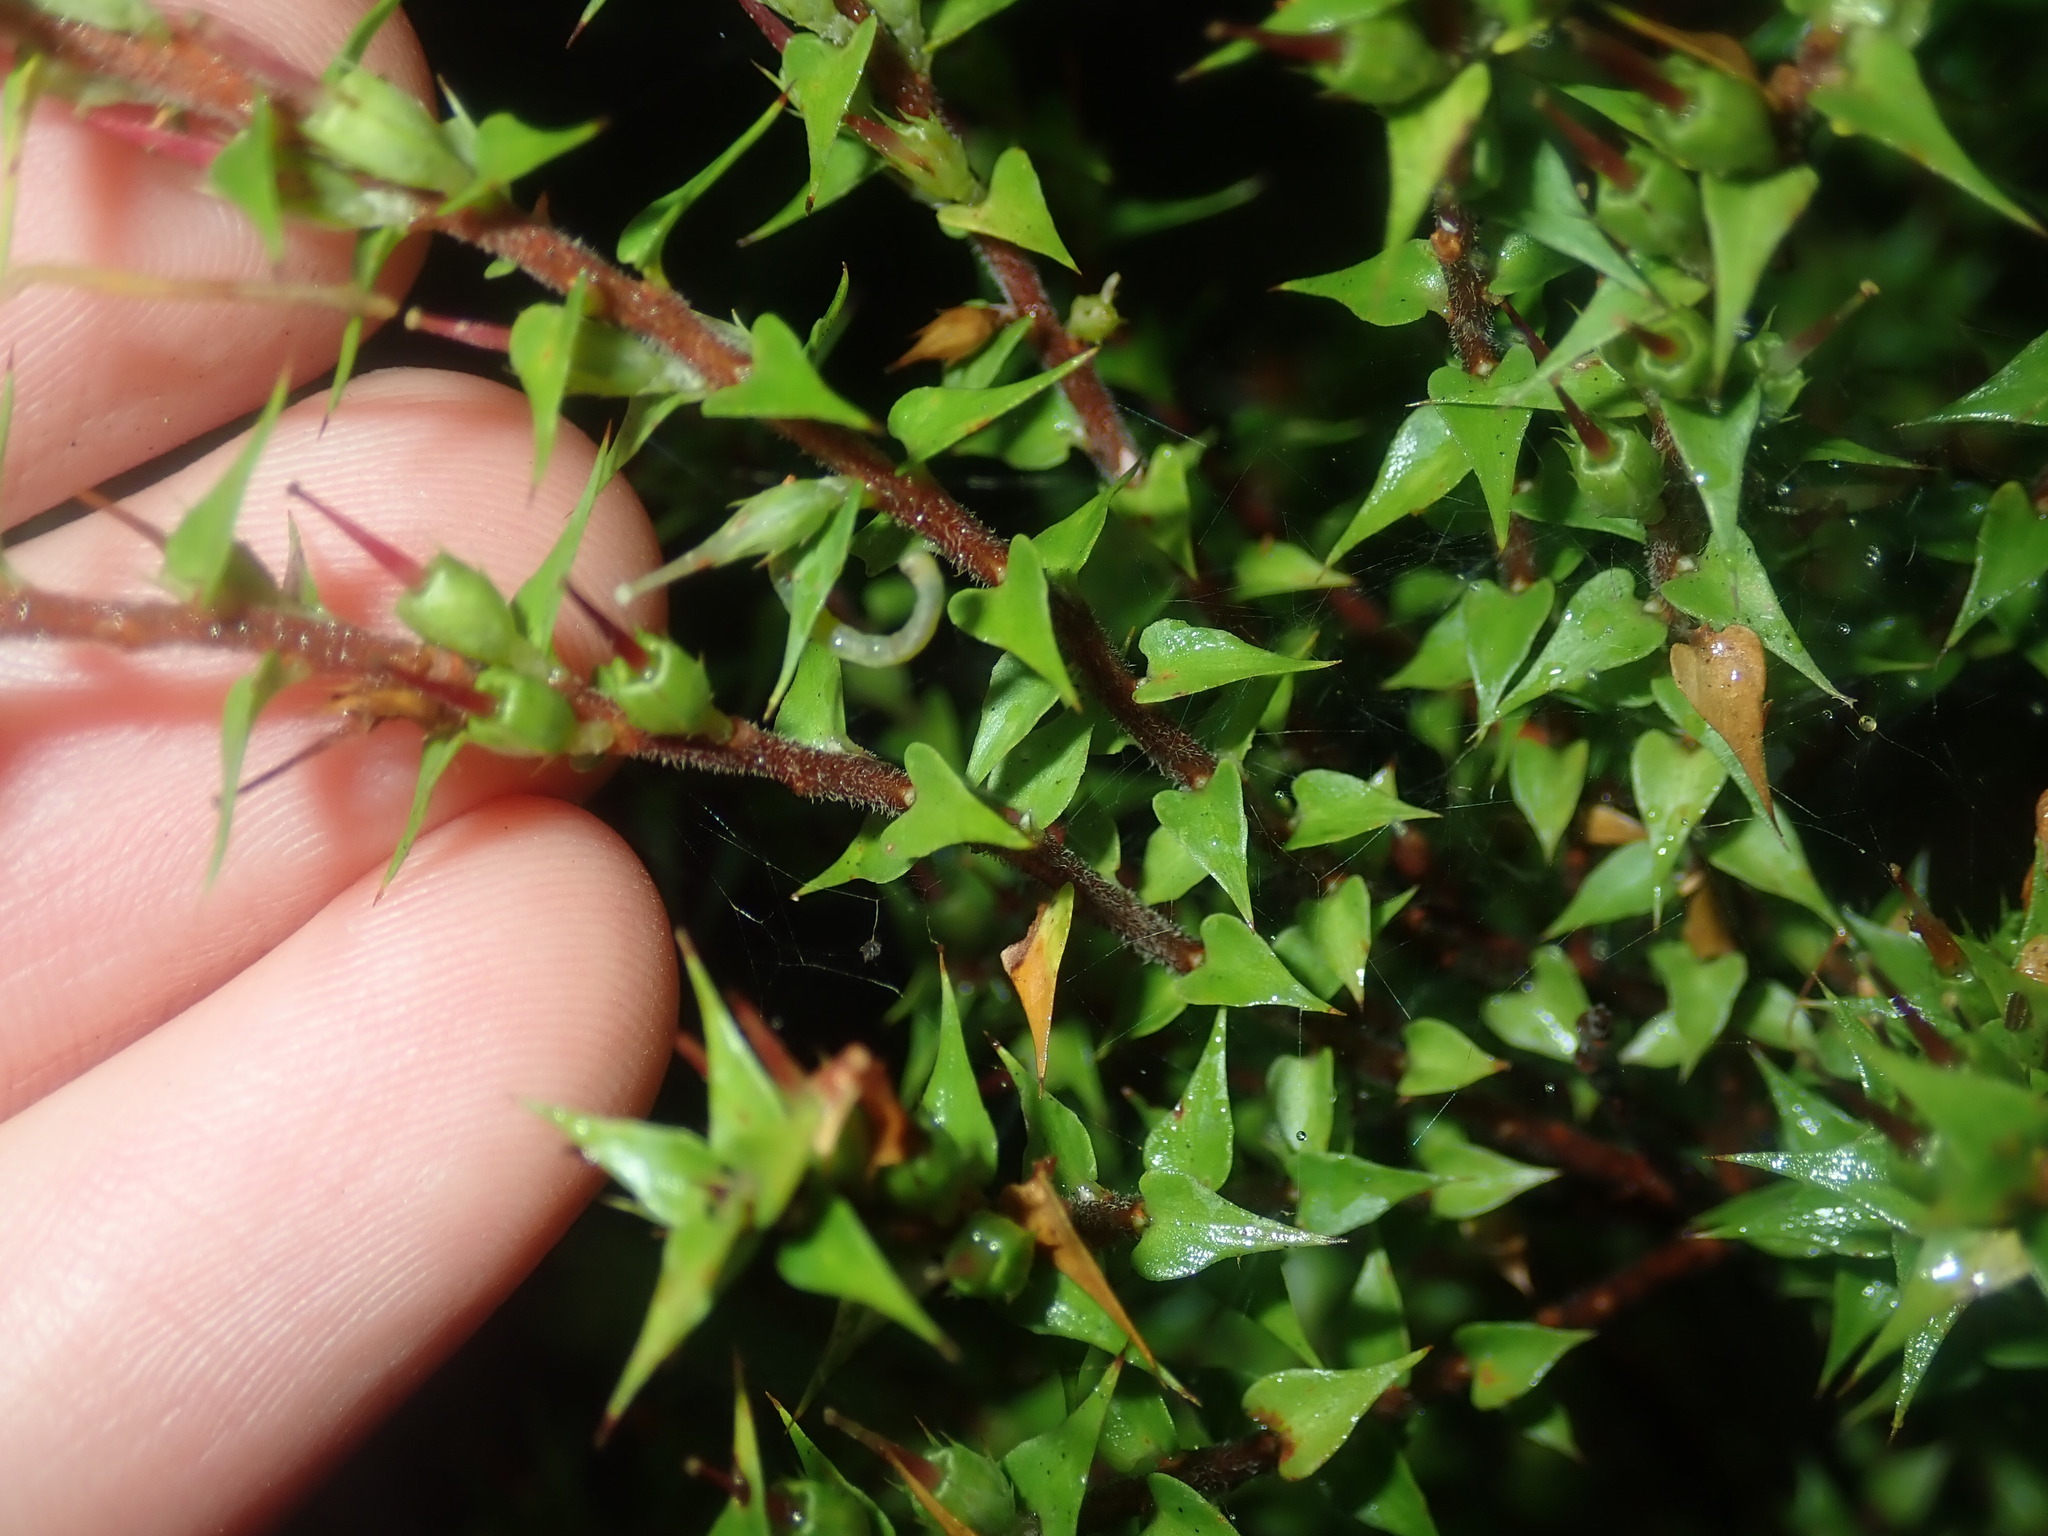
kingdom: Plantae
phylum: Tracheophyta
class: Magnoliopsida
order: Ericales
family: Ericaceae
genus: Epacris
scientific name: Epacris pulchella
